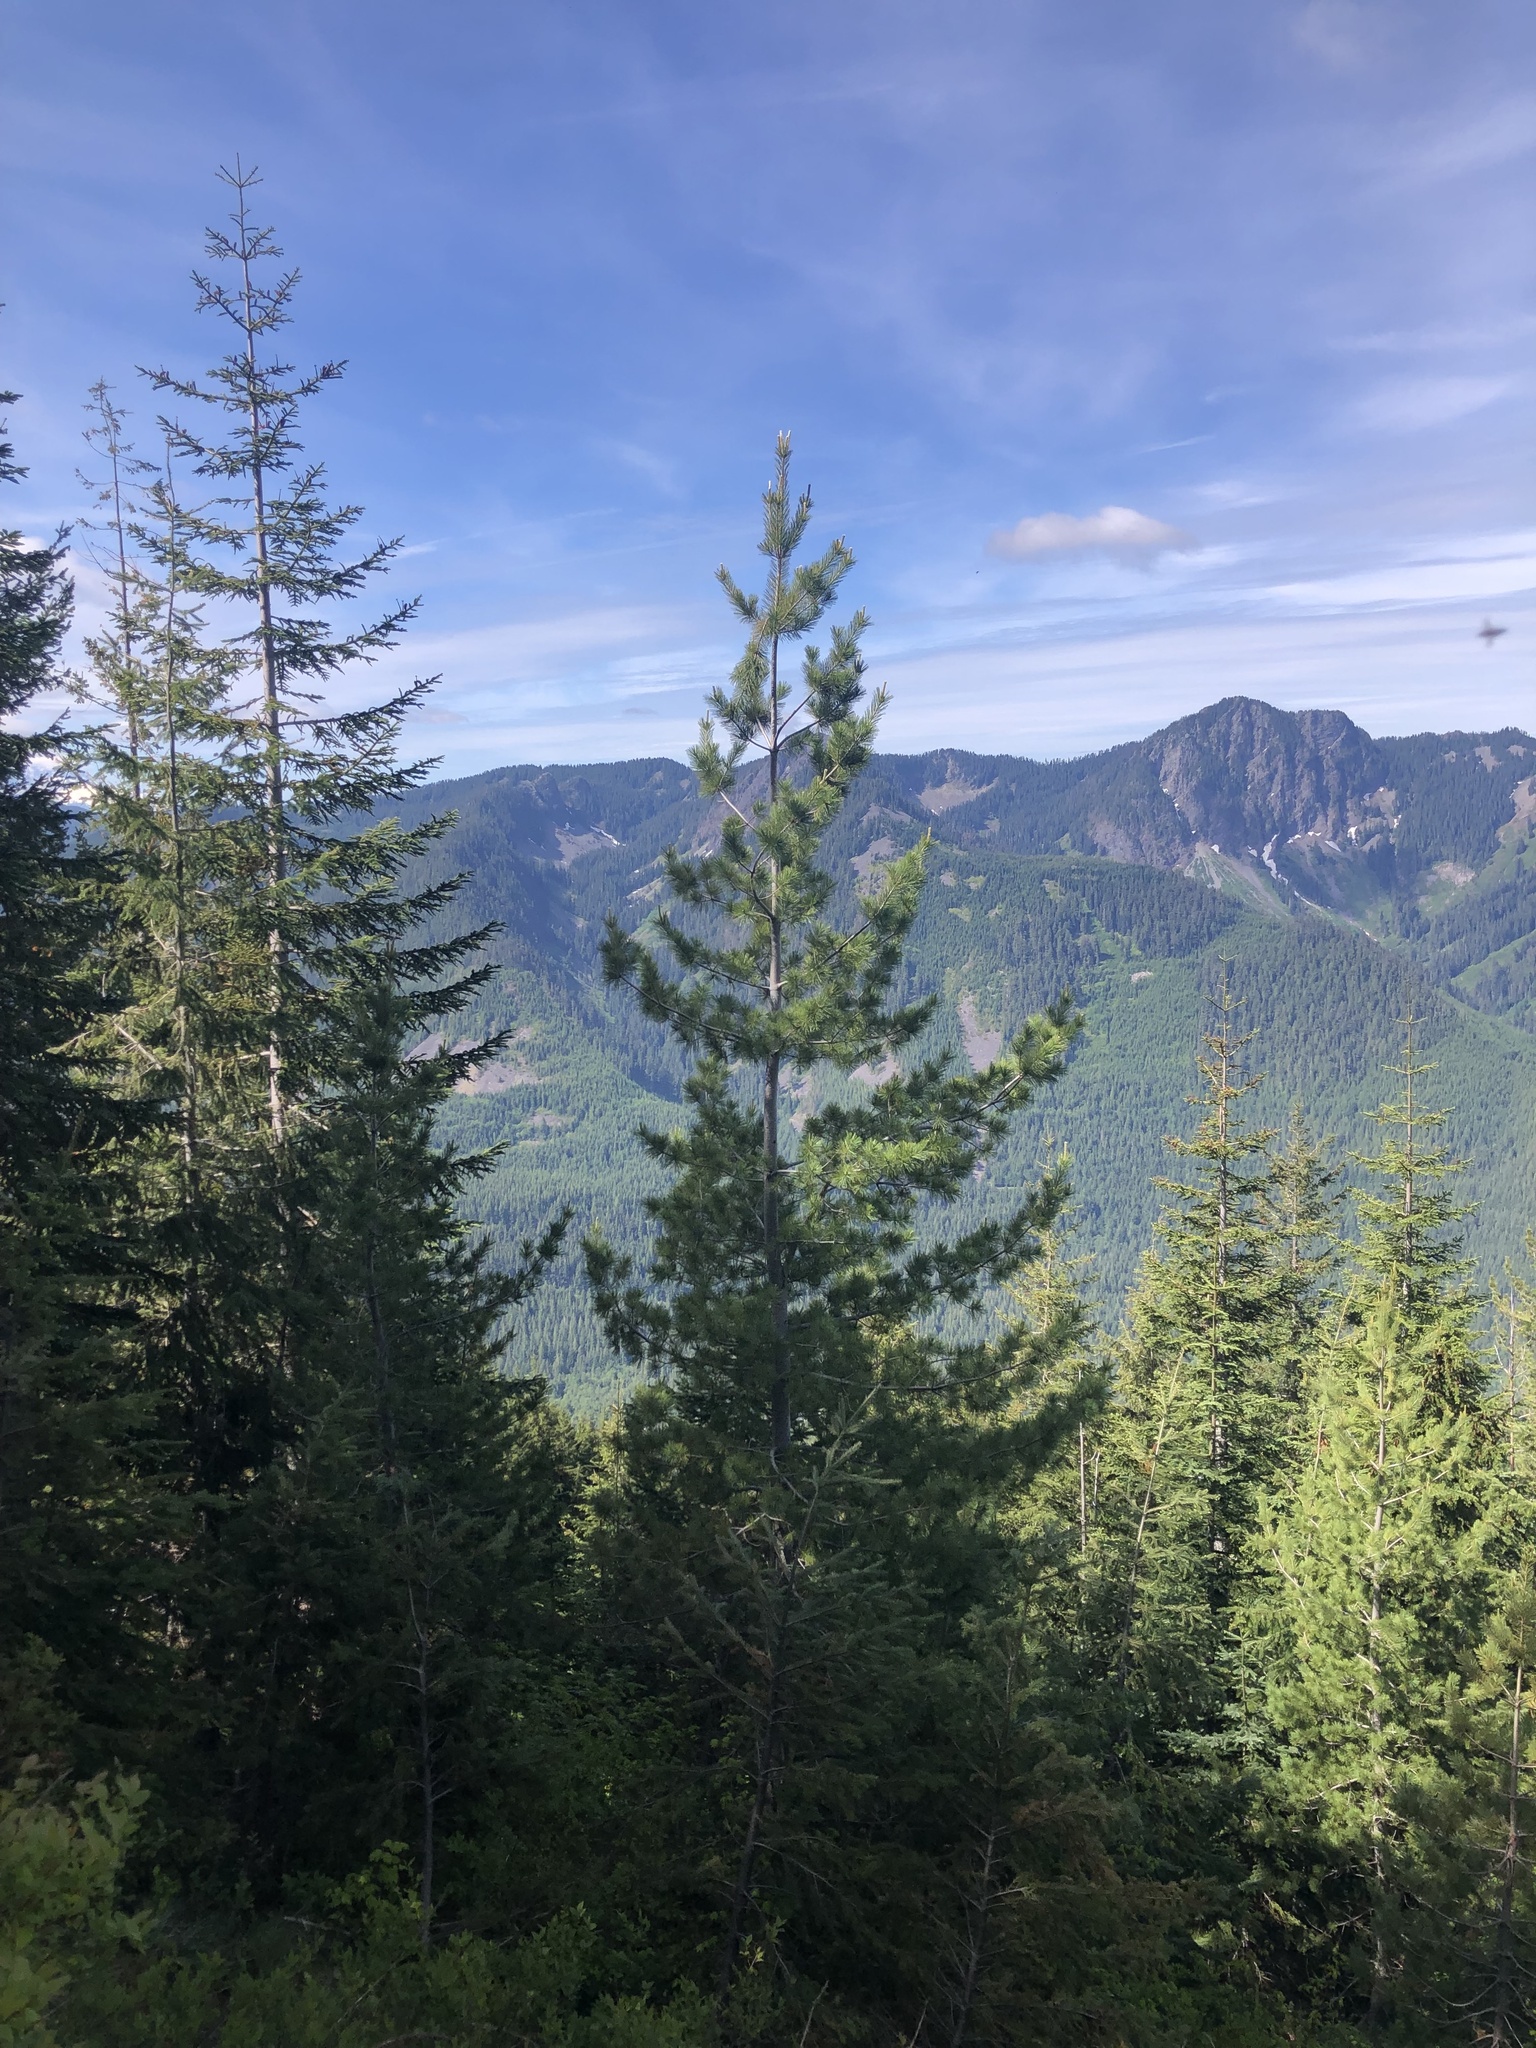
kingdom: Plantae
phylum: Tracheophyta
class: Pinopsida
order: Pinales
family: Pinaceae
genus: Abies
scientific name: Abies procera
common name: Noble fir
